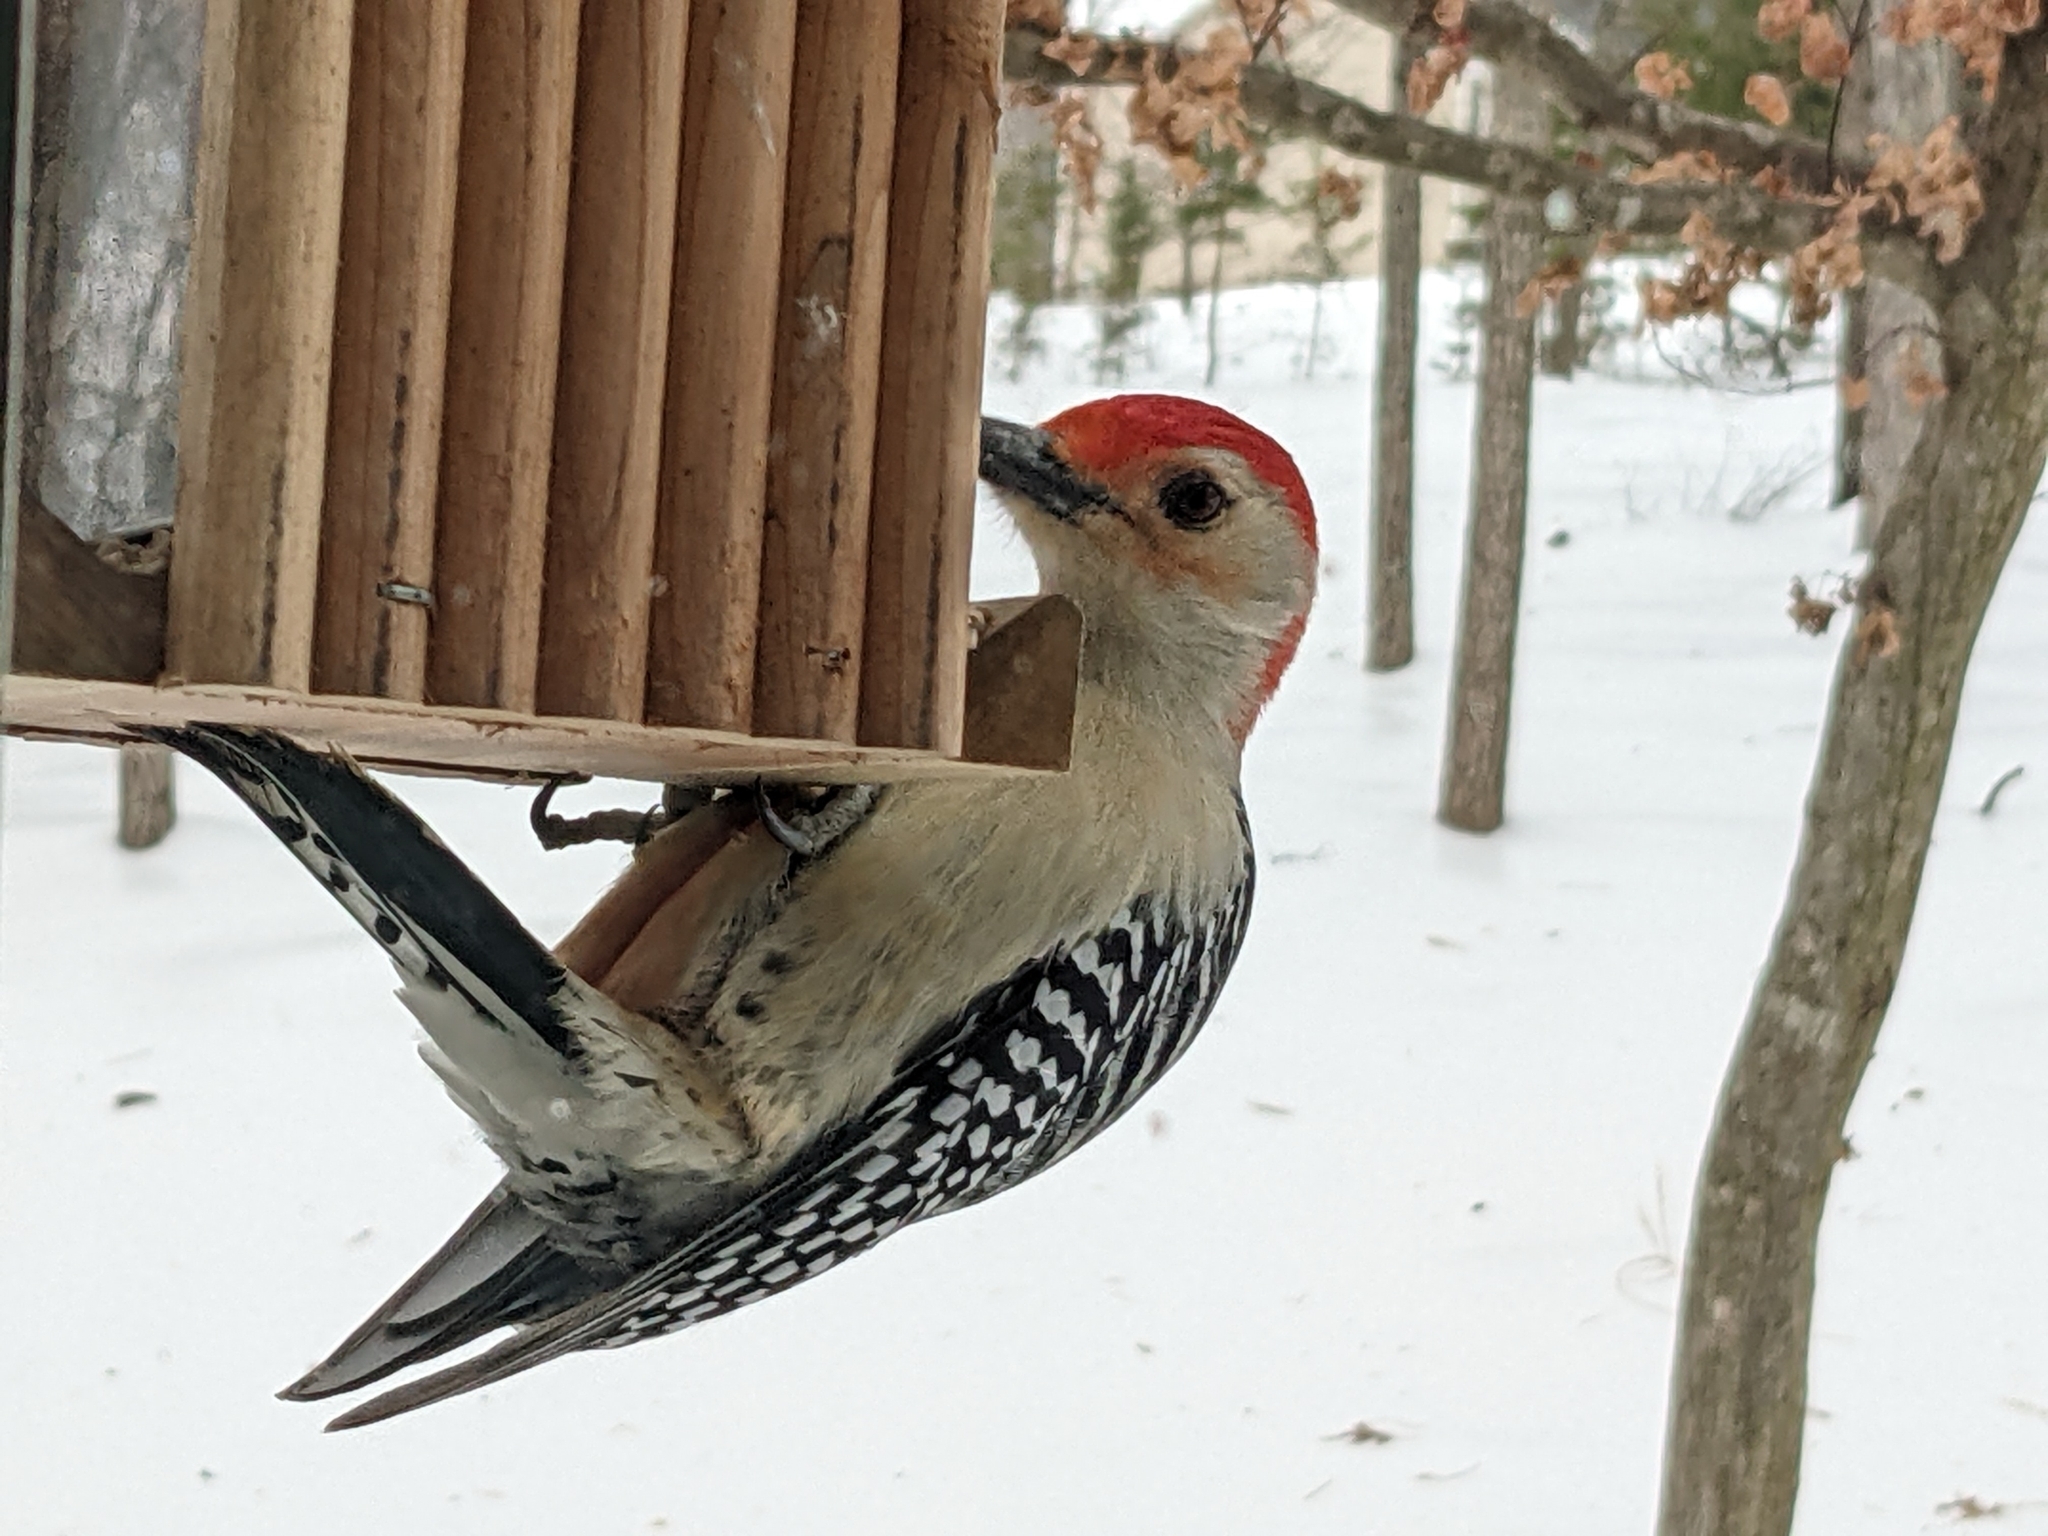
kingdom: Animalia
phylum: Chordata
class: Aves
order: Piciformes
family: Picidae
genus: Melanerpes
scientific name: Melanerpes carolinus
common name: Red-bellied woodpecker
